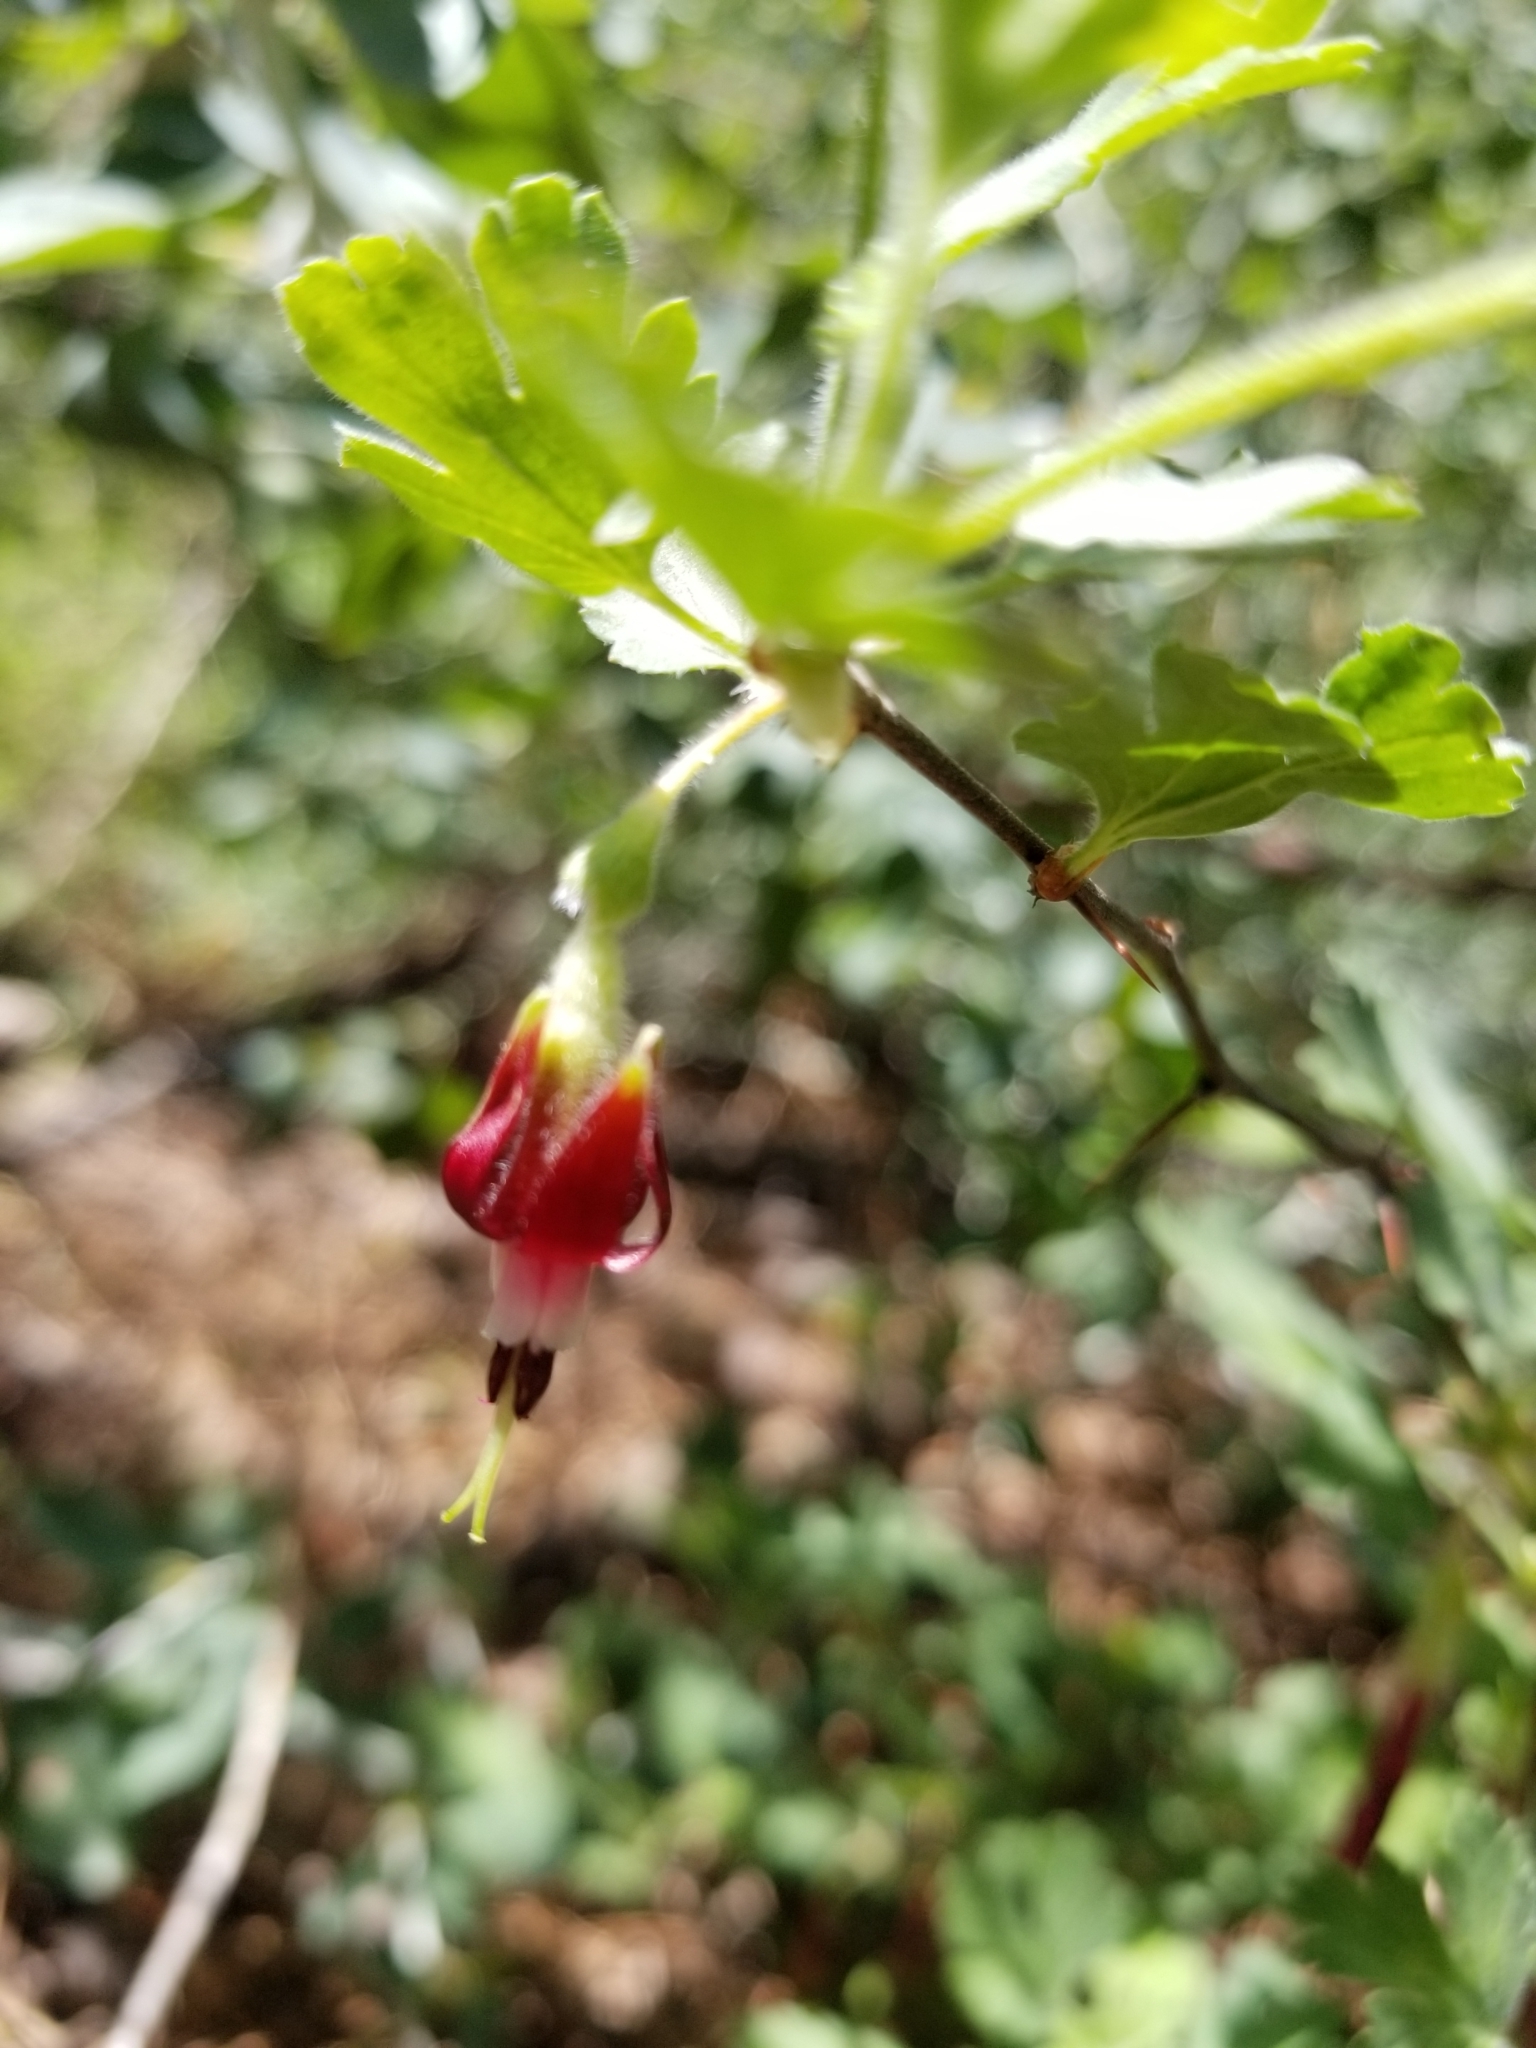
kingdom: Plantae
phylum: Tracheophyta
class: Magnoliopsida
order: Saxifragales
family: Grossulariaceae
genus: Ribes
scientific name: Ribes roezlii
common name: Sierra gooseberry
